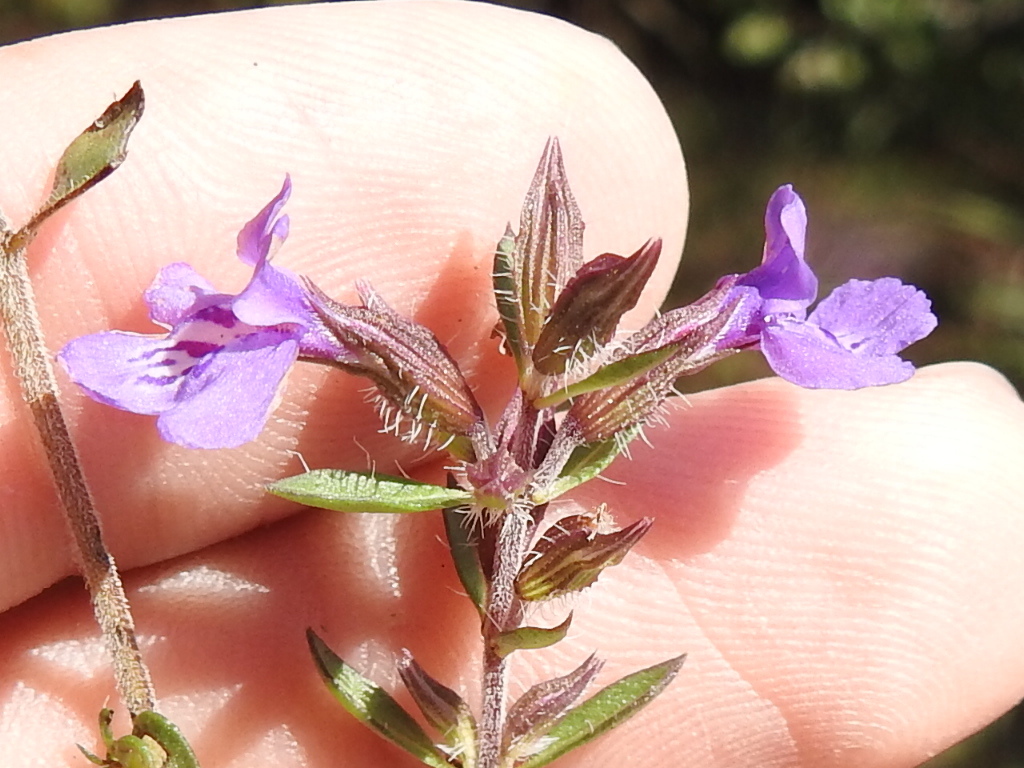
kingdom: Plantae
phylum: Tracheophyta
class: Magnoliopsida
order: Lamiales
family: Lamiaceae
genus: Rhododon
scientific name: Rhododon ciliatus
